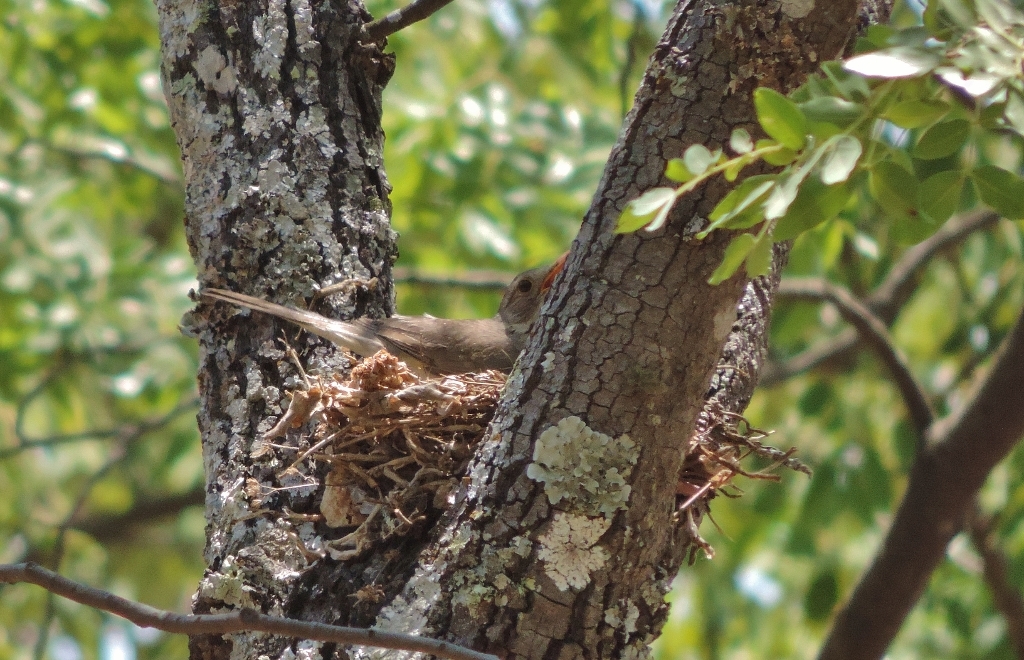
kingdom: Animalia
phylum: Chordata
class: Aves
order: Passeriformes
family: Turdidae
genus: Turdus
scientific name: Turdus libonyana
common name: Kurrichane thrush
